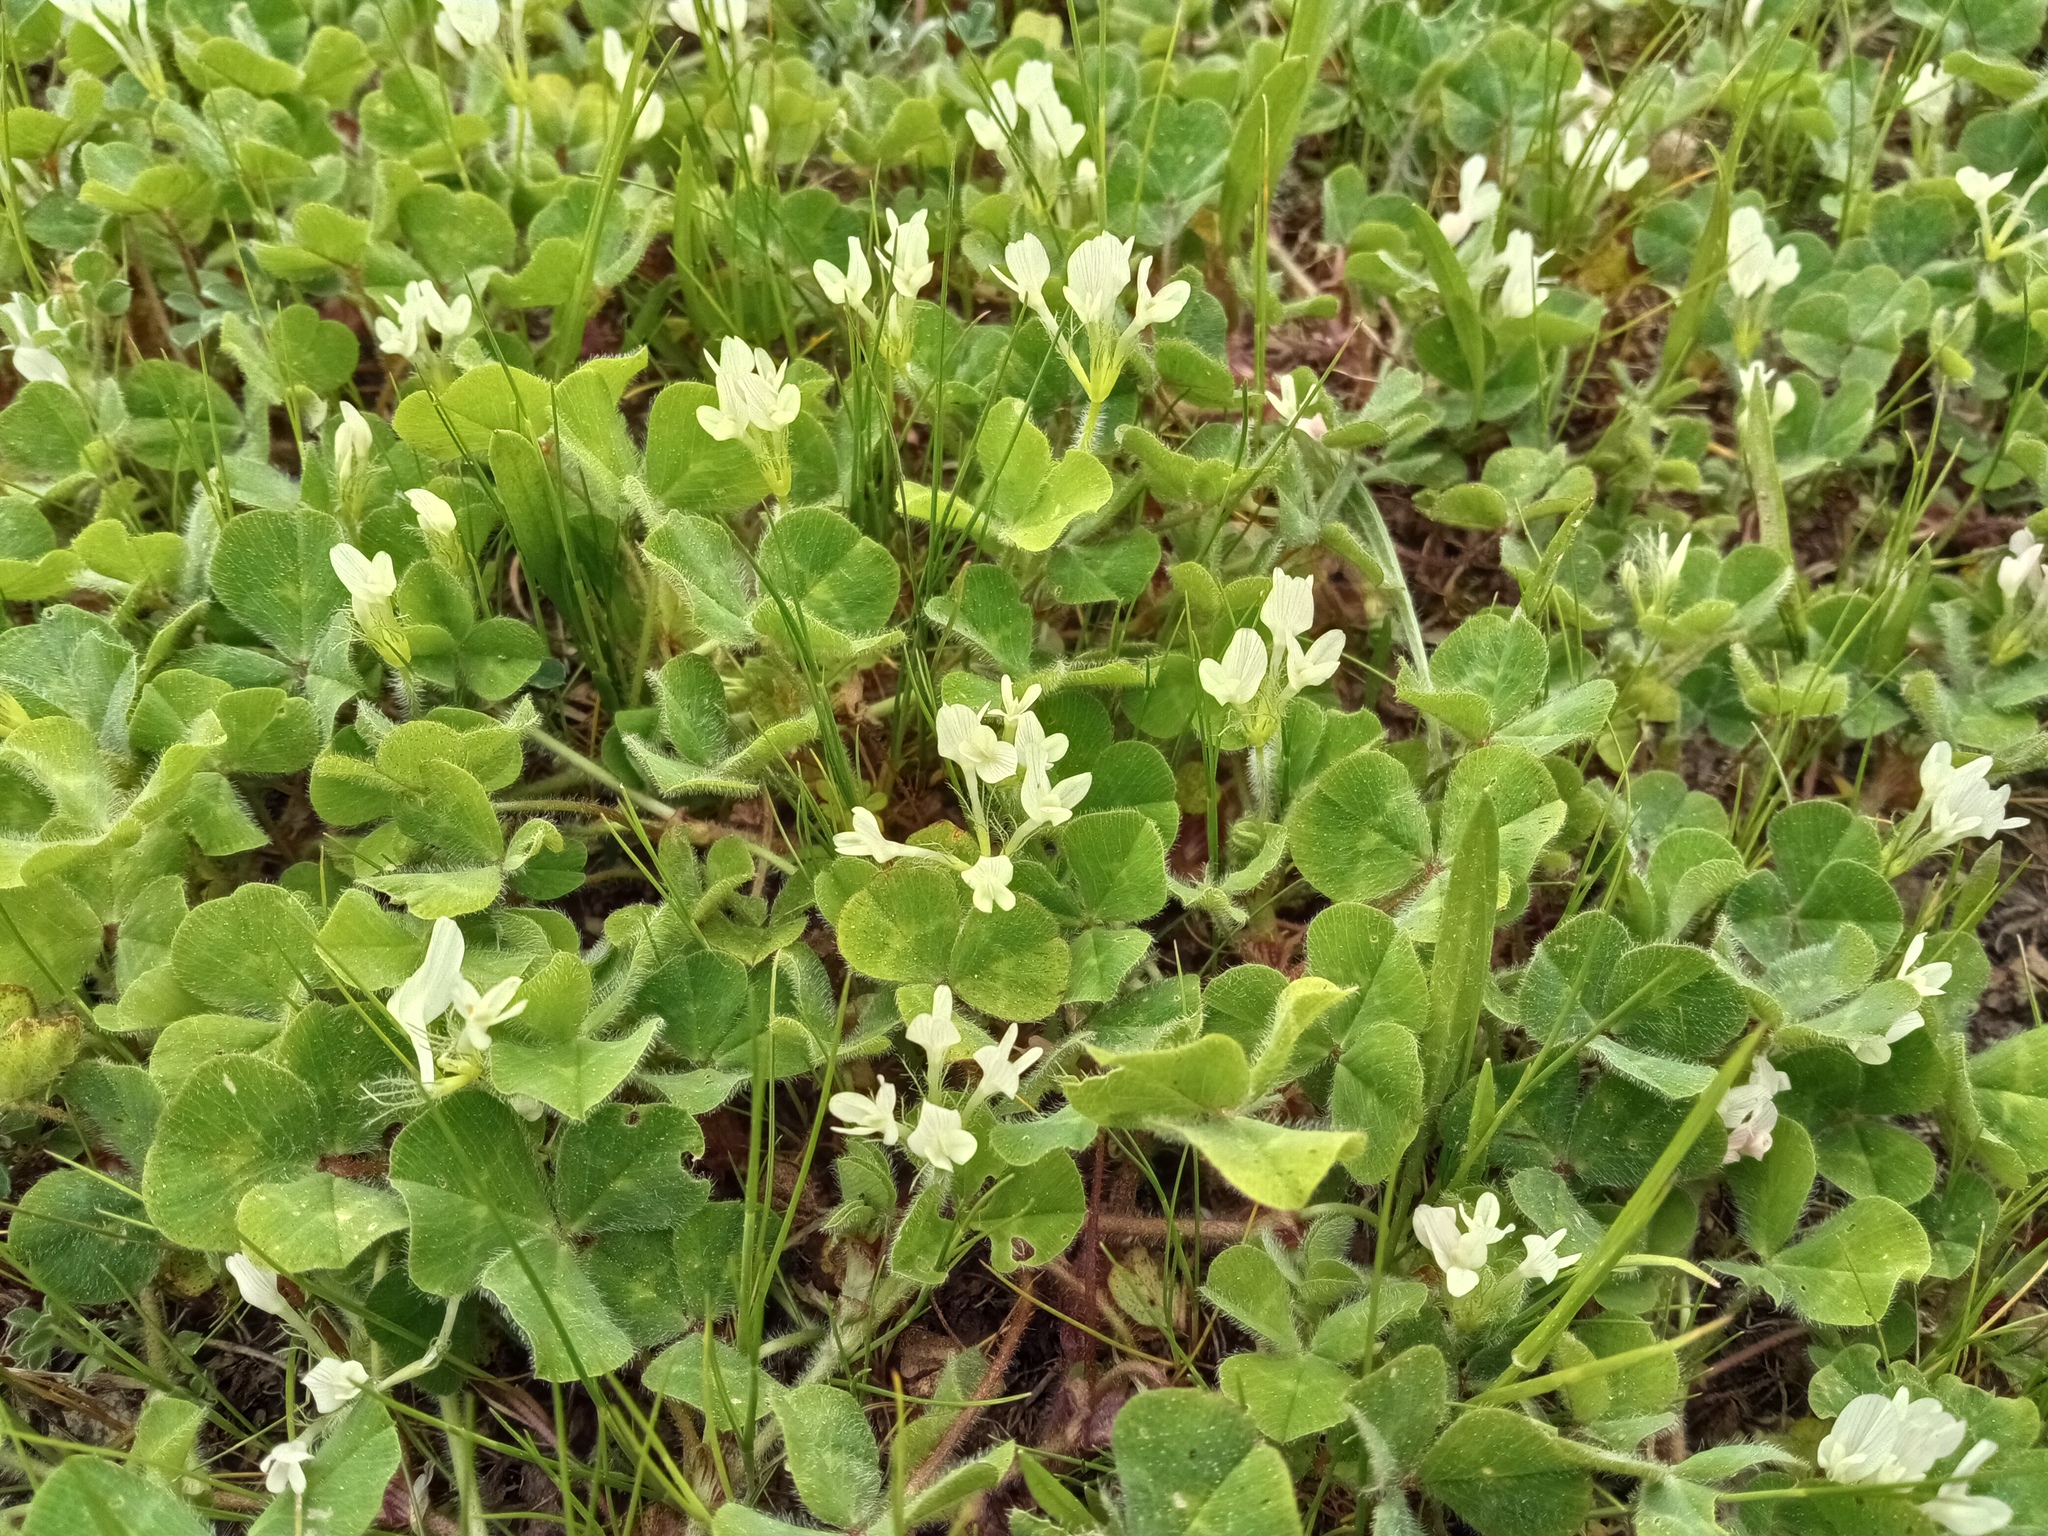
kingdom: Plantae
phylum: Tracheophyta
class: Magnoliopsida
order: Fabales
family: Fabaceae
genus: Trifolium
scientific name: Trifolium subterraneum
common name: Subterranean clover
